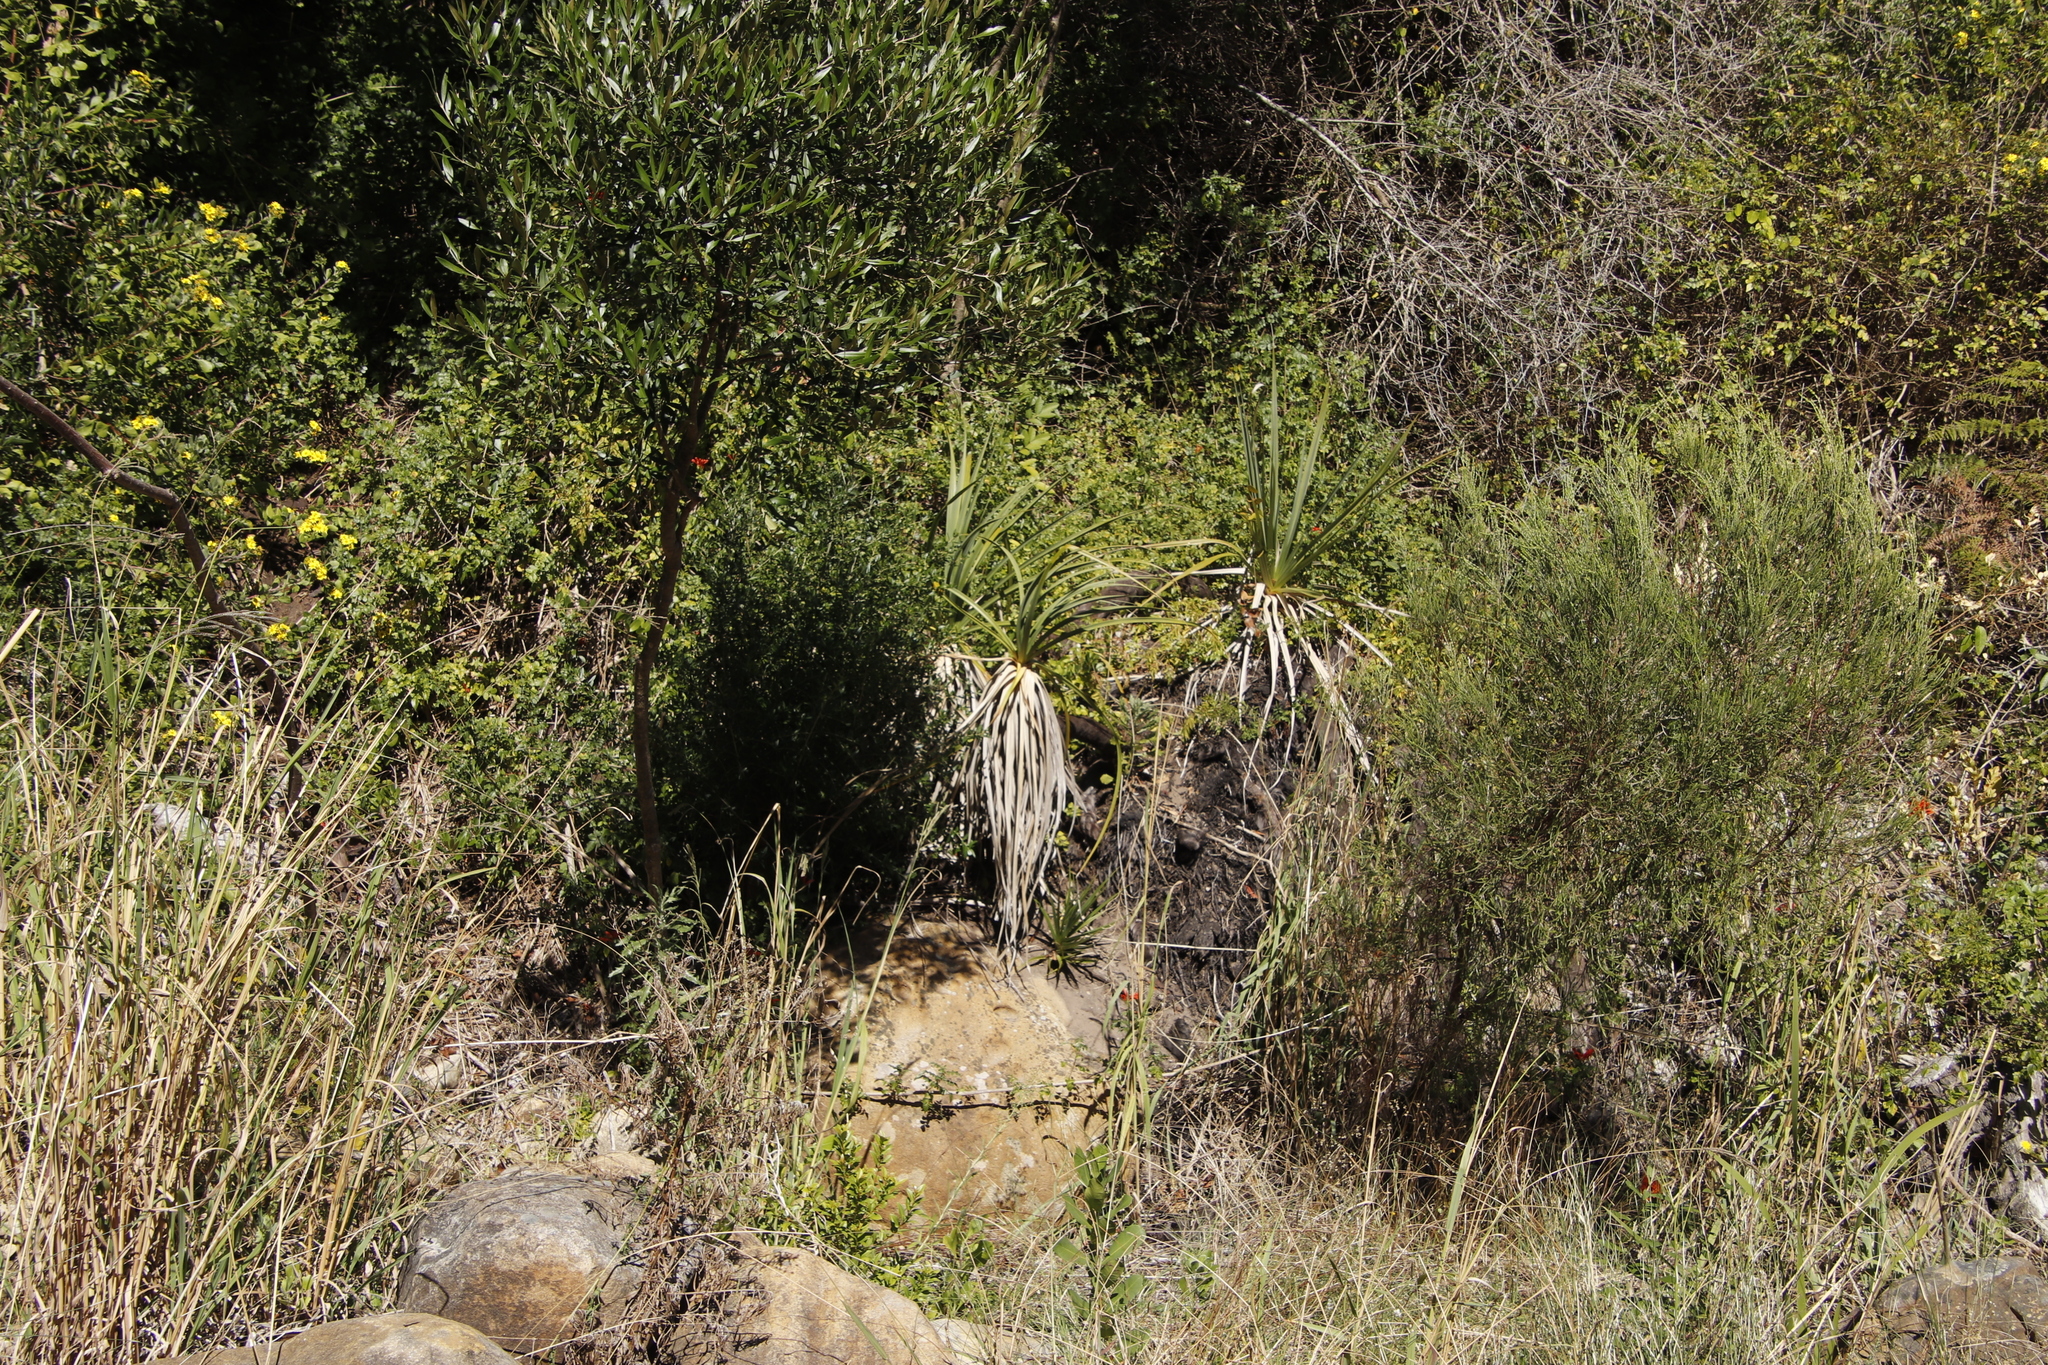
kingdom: Plantae
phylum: Tracheophyta
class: Liliopsida
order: Poales
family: Thurniaceae
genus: Prionium
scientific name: Prionium serratum
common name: Palmiet
